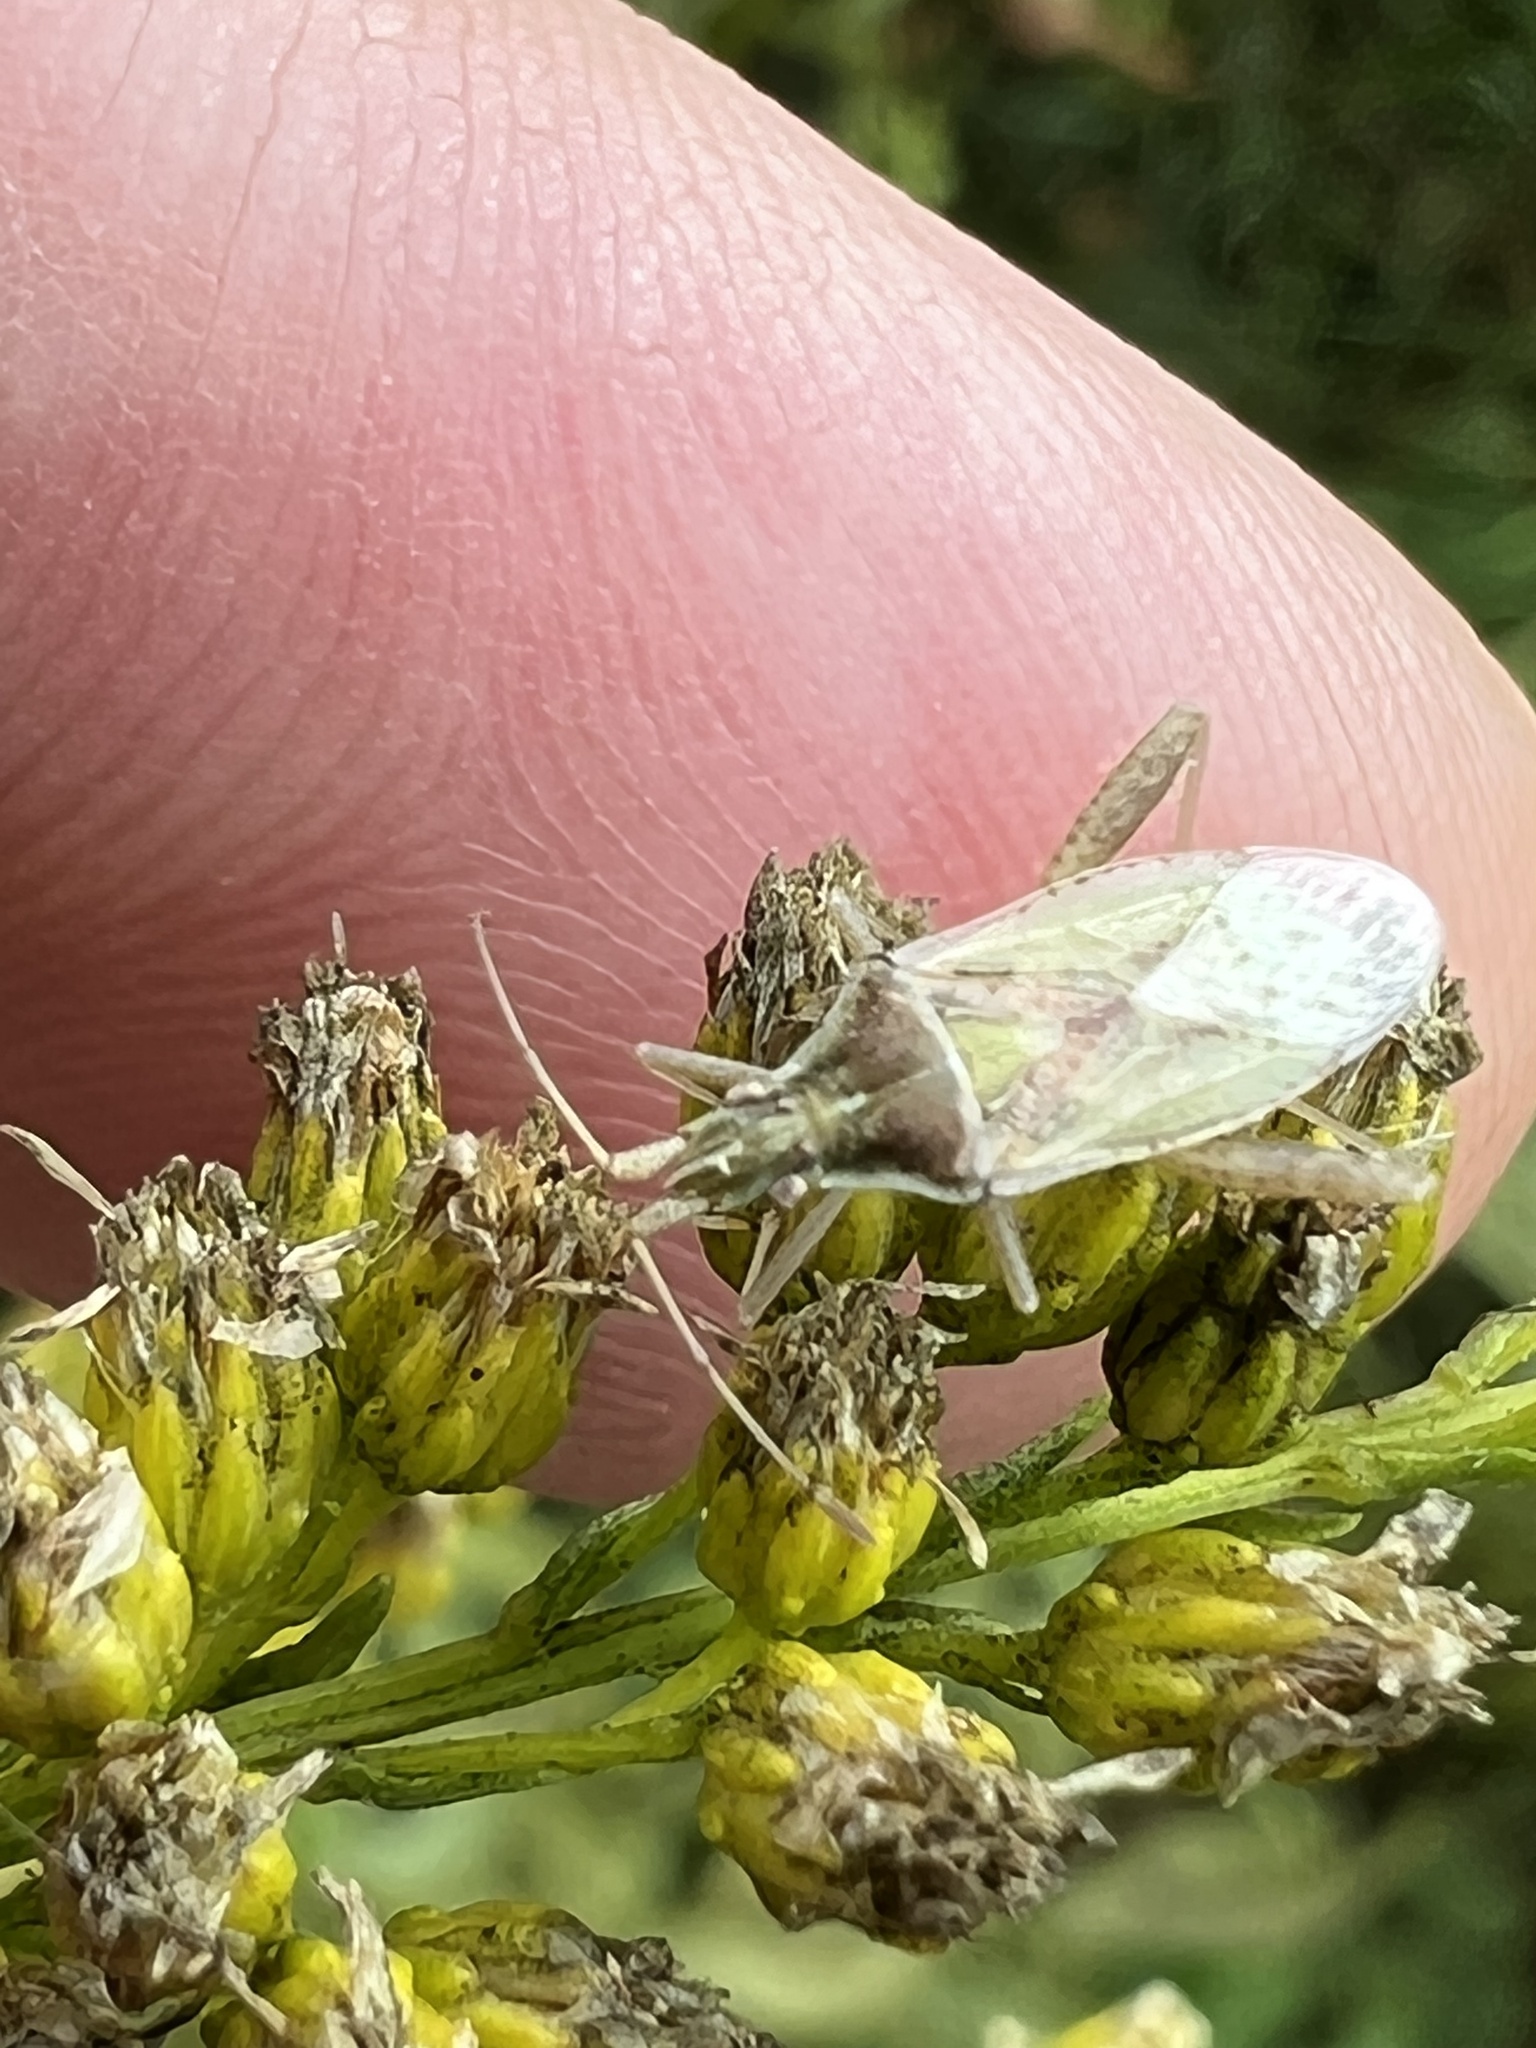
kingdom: Animalia
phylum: Arthropoda
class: Insecta
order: Hemiptera
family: Rhopalidae
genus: Harmostes
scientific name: Harmostes reflexulus
